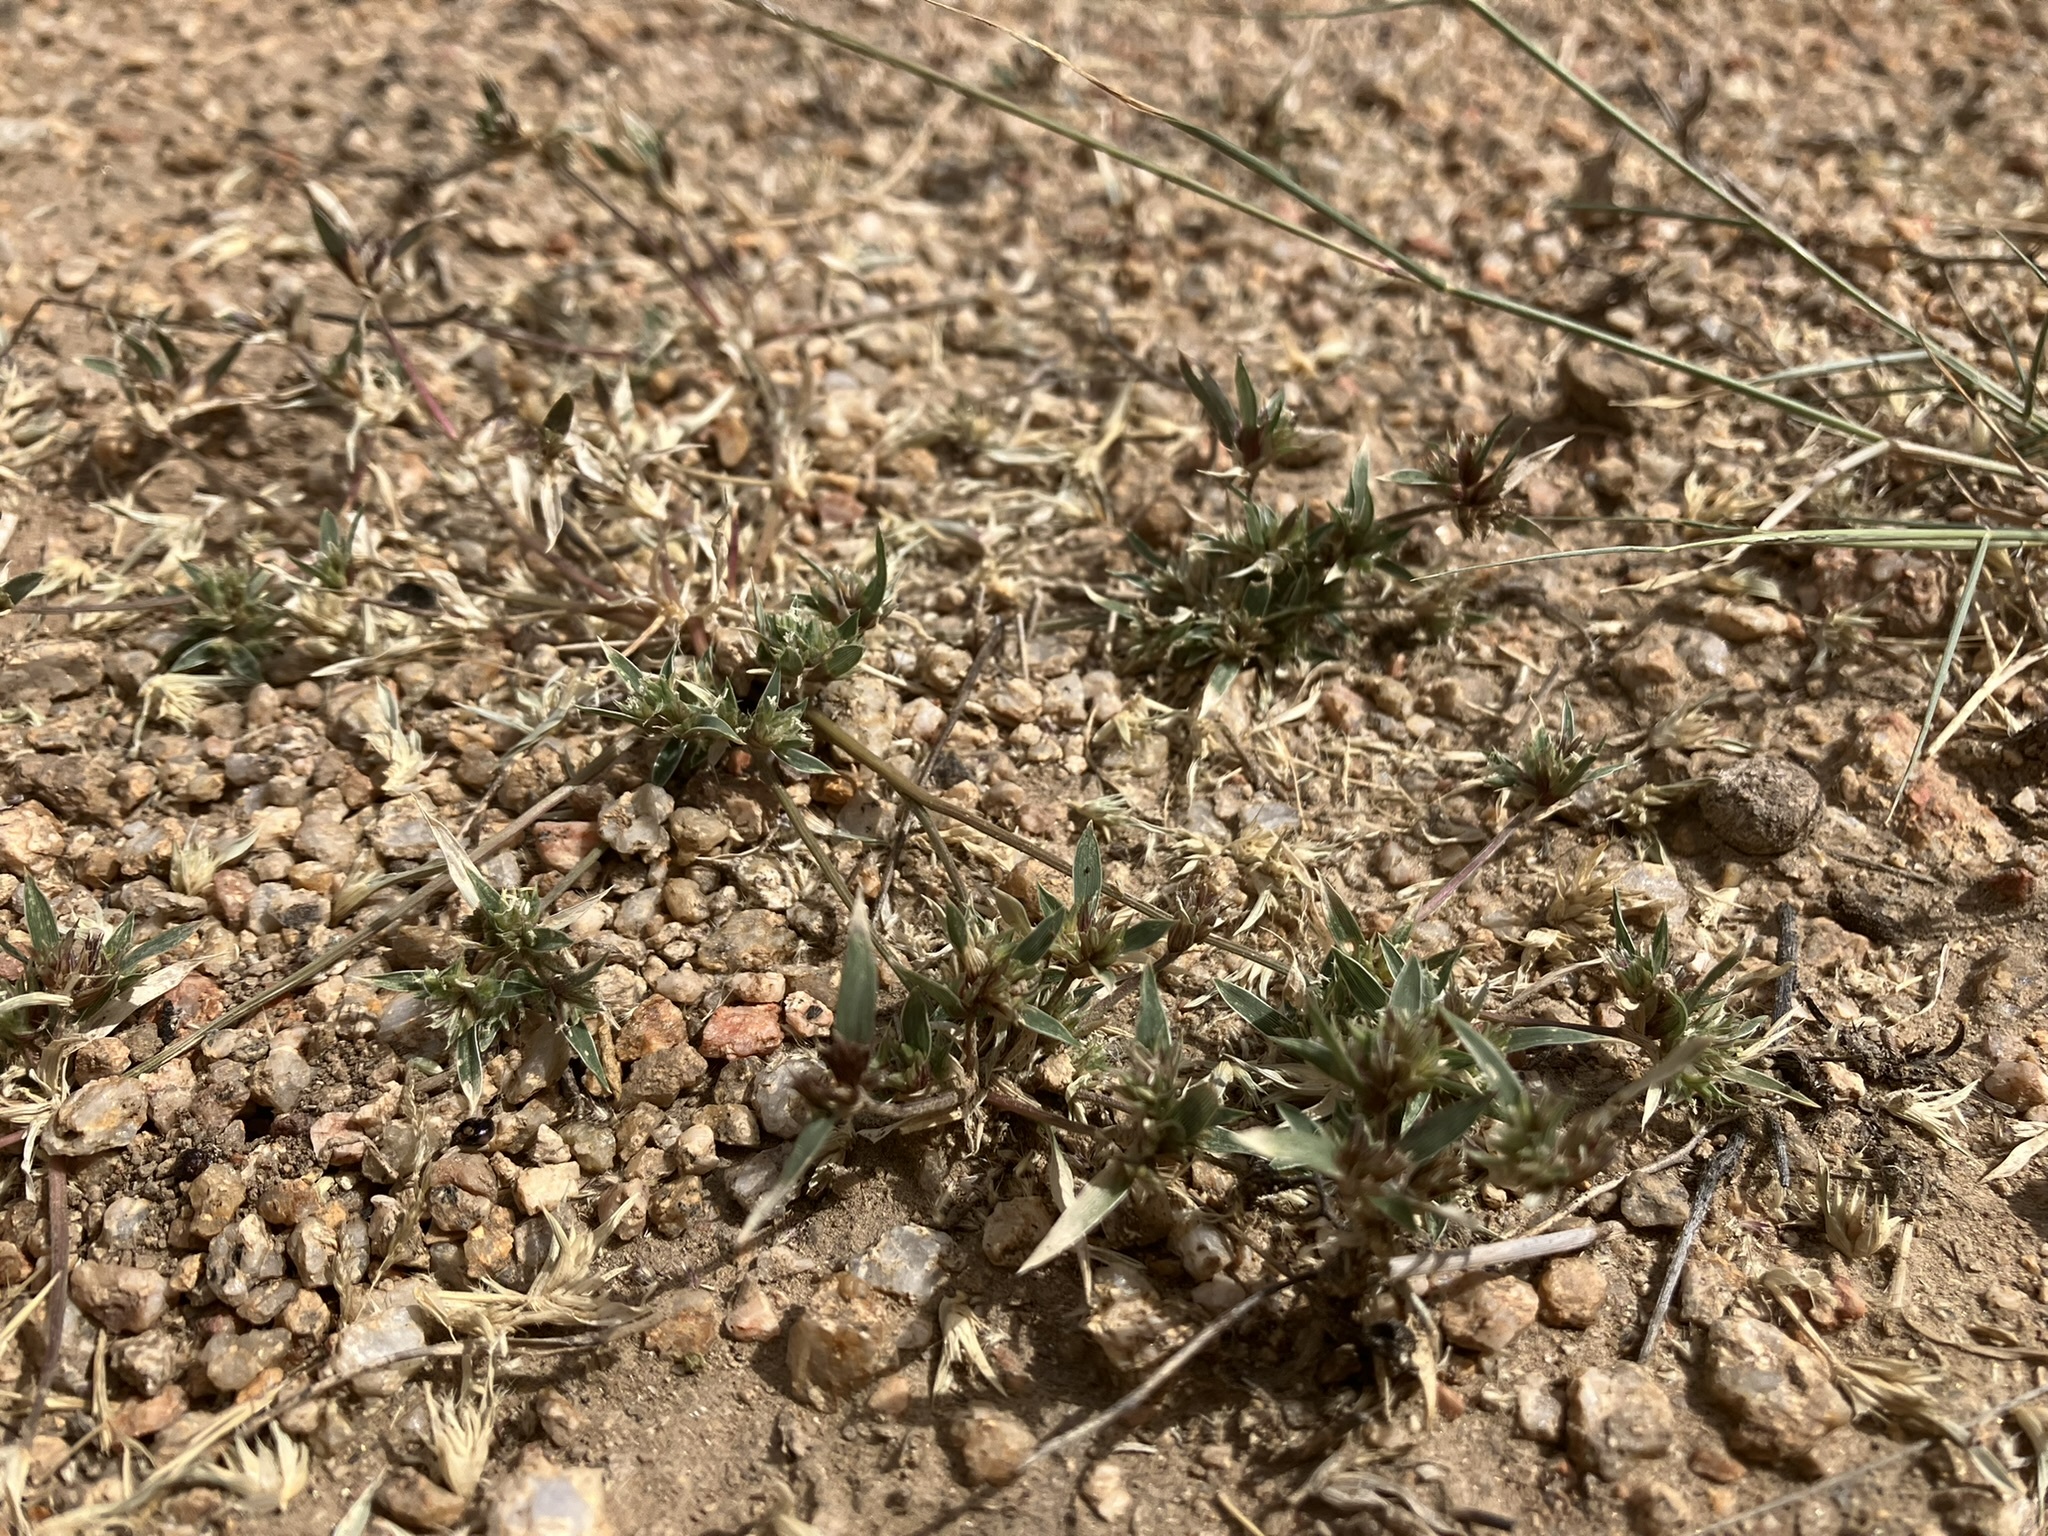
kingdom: Plantae
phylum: Tracheophyta
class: Liliopsida
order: Poales
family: Poaceae
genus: Munroa
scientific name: Munroa squarrosa
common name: False buffalo grass
